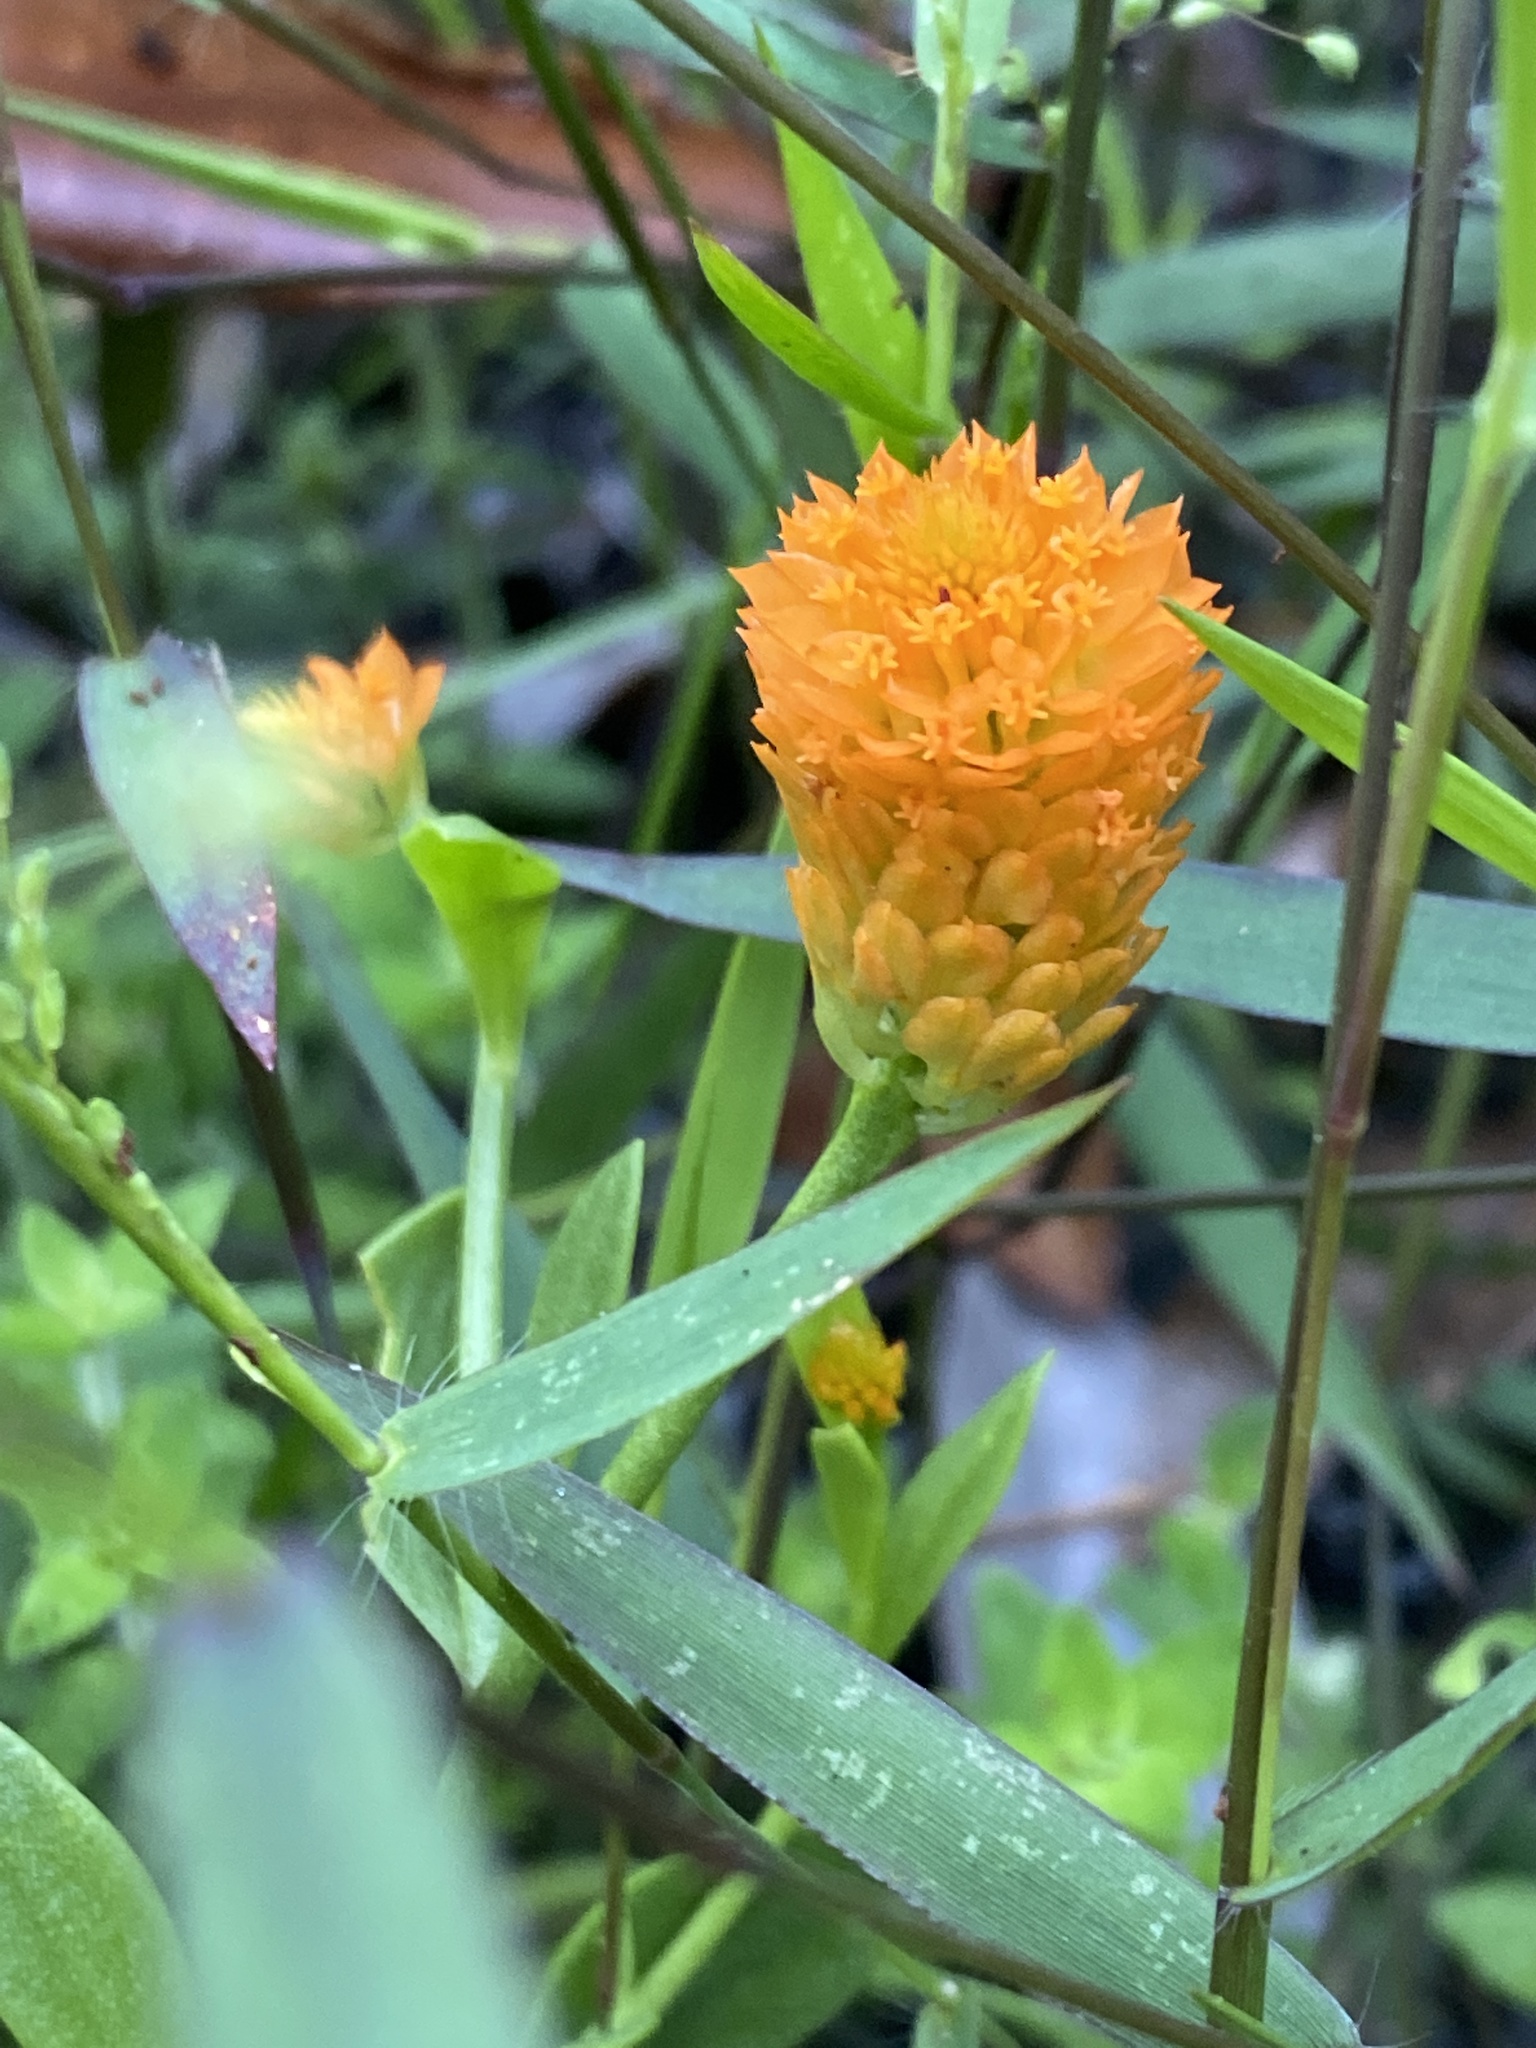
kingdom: Plantae
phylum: Tracheophyta
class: Magnoliopsida
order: Fabales
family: Polygalaceae
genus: Polygala
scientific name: Polygala lutea
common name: Orange milkwort
